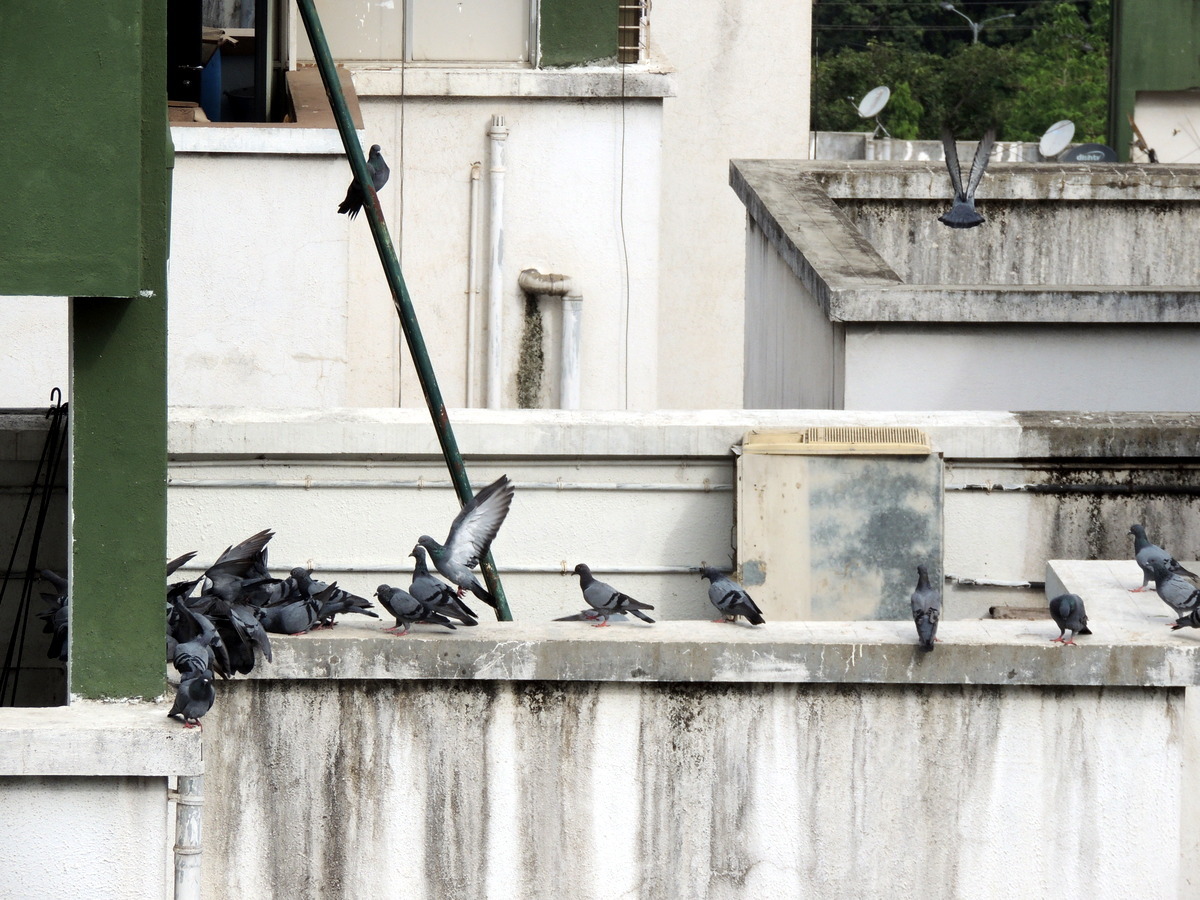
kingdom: Animalia
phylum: Chordata
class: Aves
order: Columbiformes
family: Columbidae
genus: Columba
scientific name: Columba livia
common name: Rock pigeon
